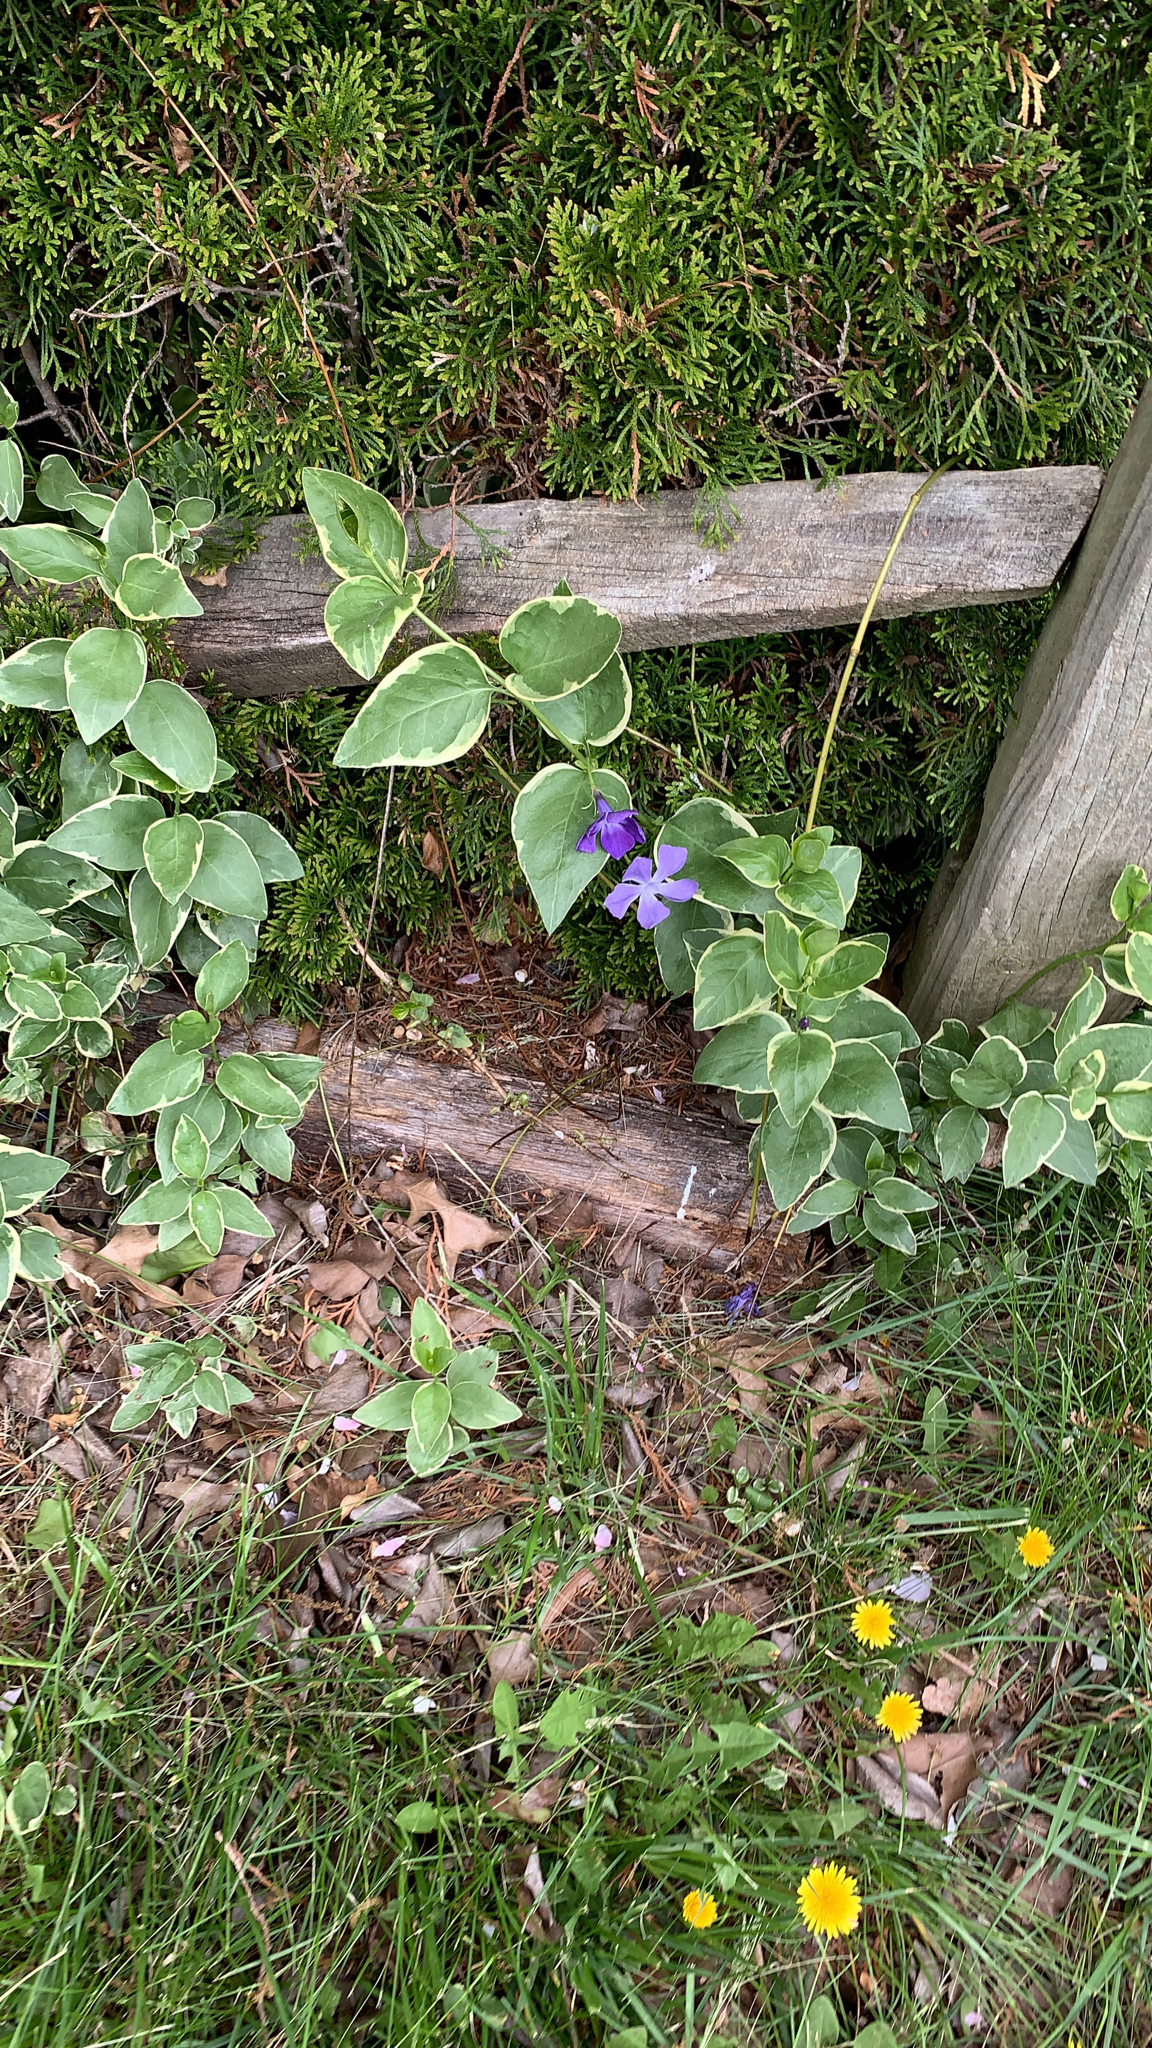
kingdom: Plantae
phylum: Tracheophyta
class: Magnoliopsida
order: Gentianales
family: Apocynaceae
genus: Vinca
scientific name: Vinca major
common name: Greater periwinkle
